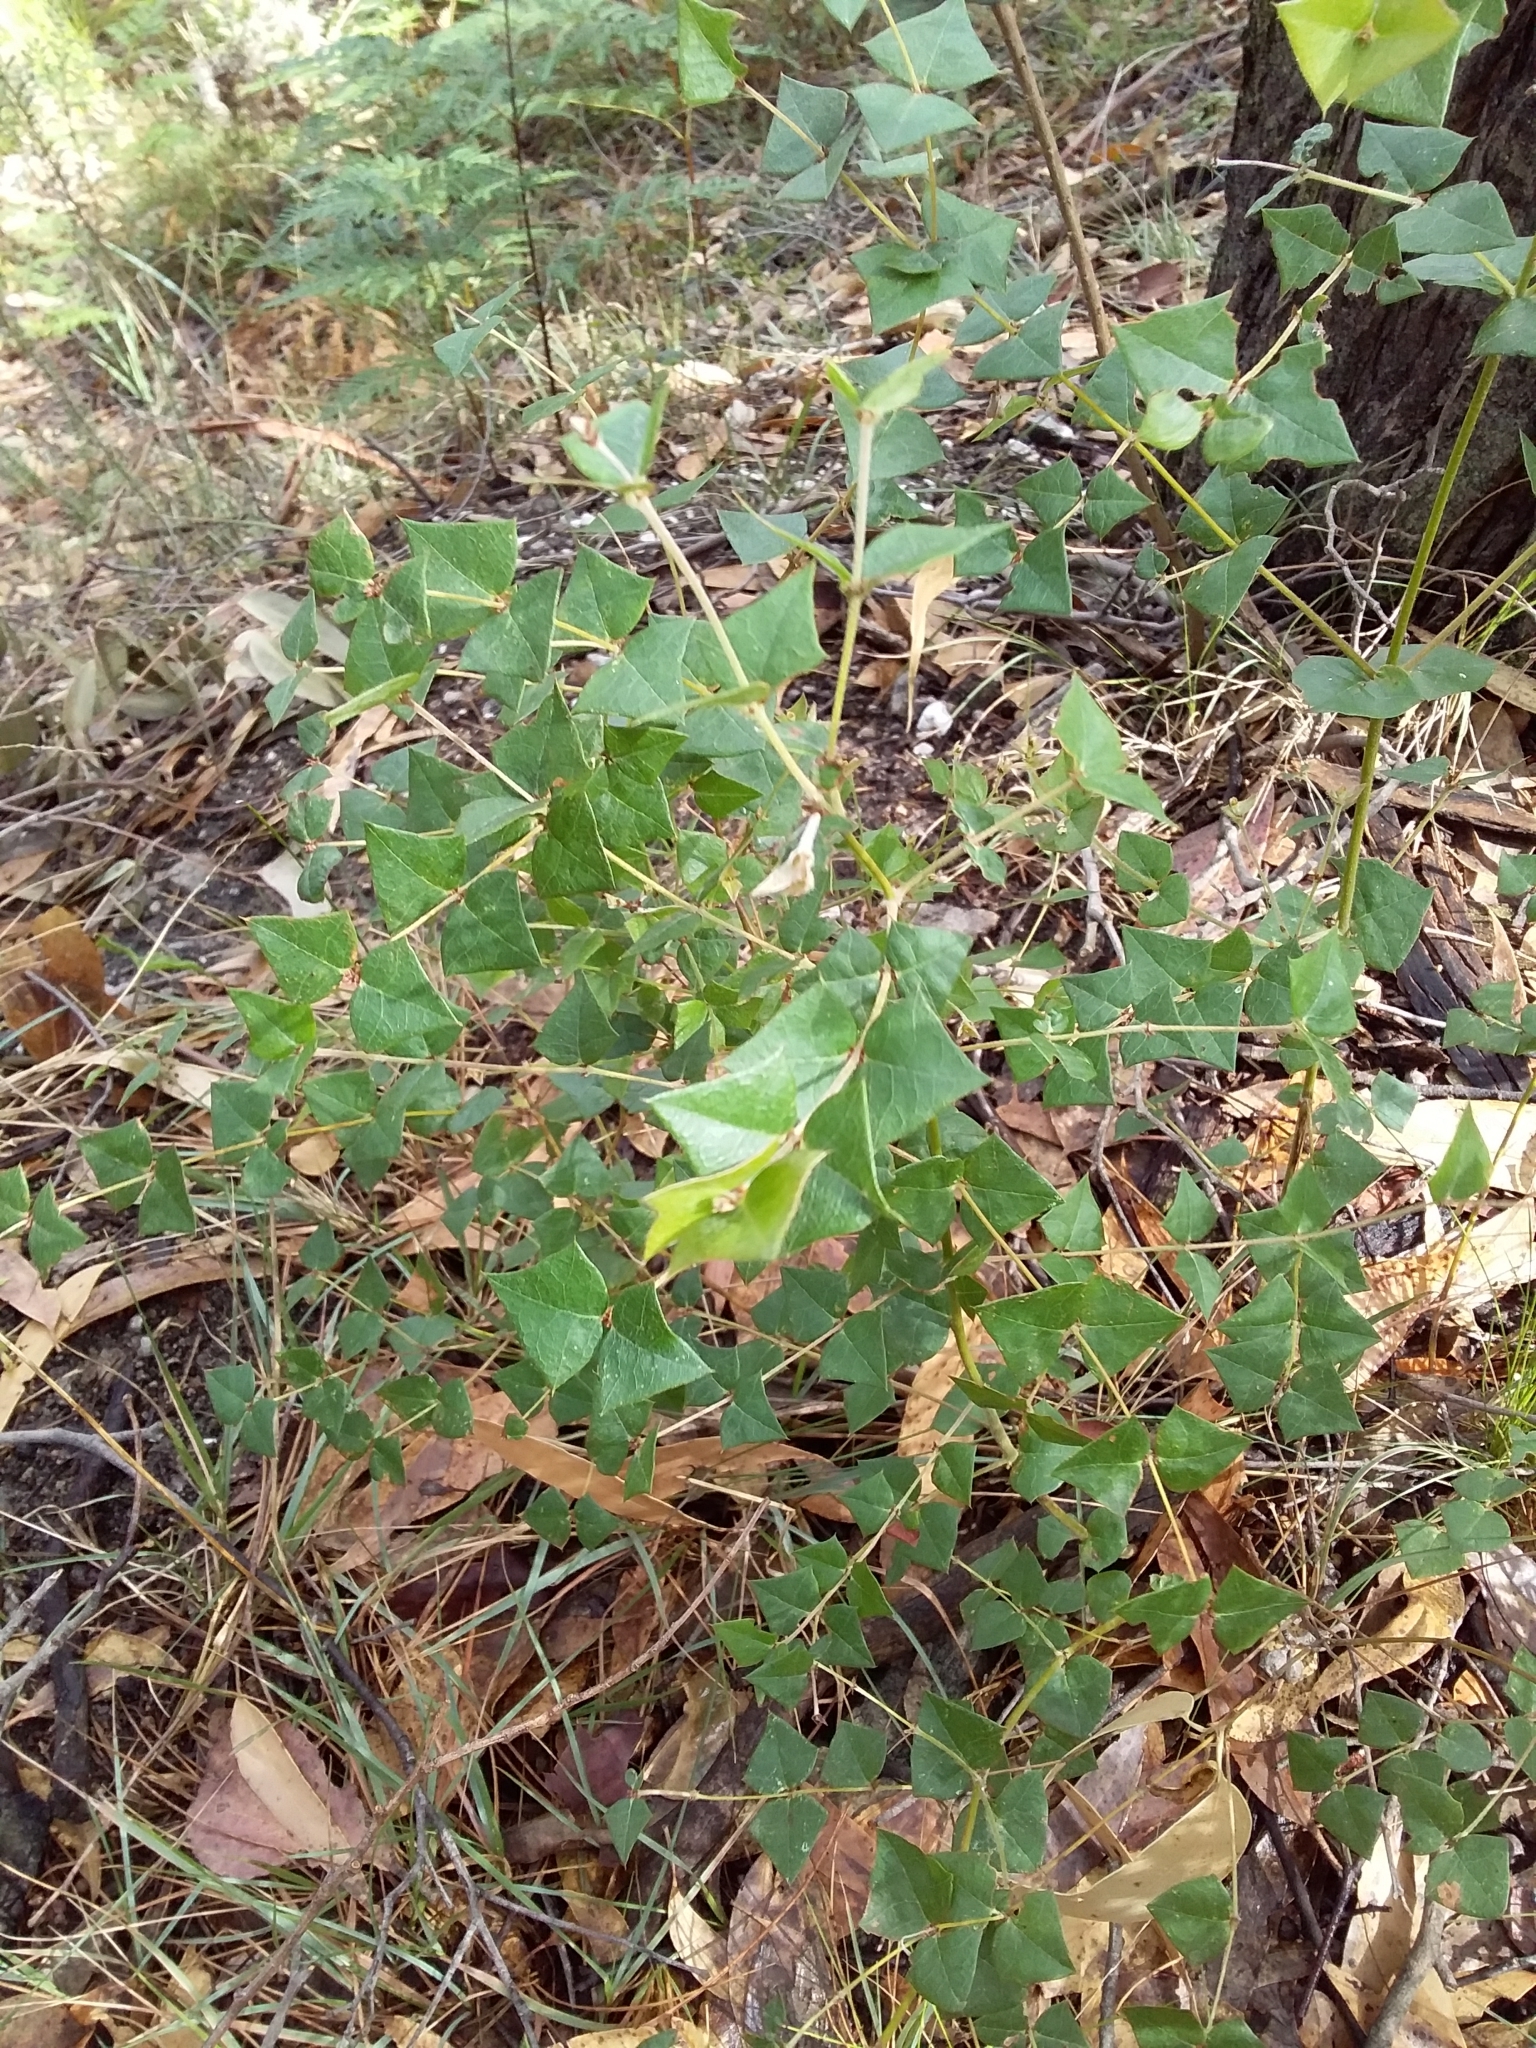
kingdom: Plantae
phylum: Tracheophyta
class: Magnoliopsida
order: Fabales
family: Fabaceae
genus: Platylobium
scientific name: Platylobium obtusangulum
